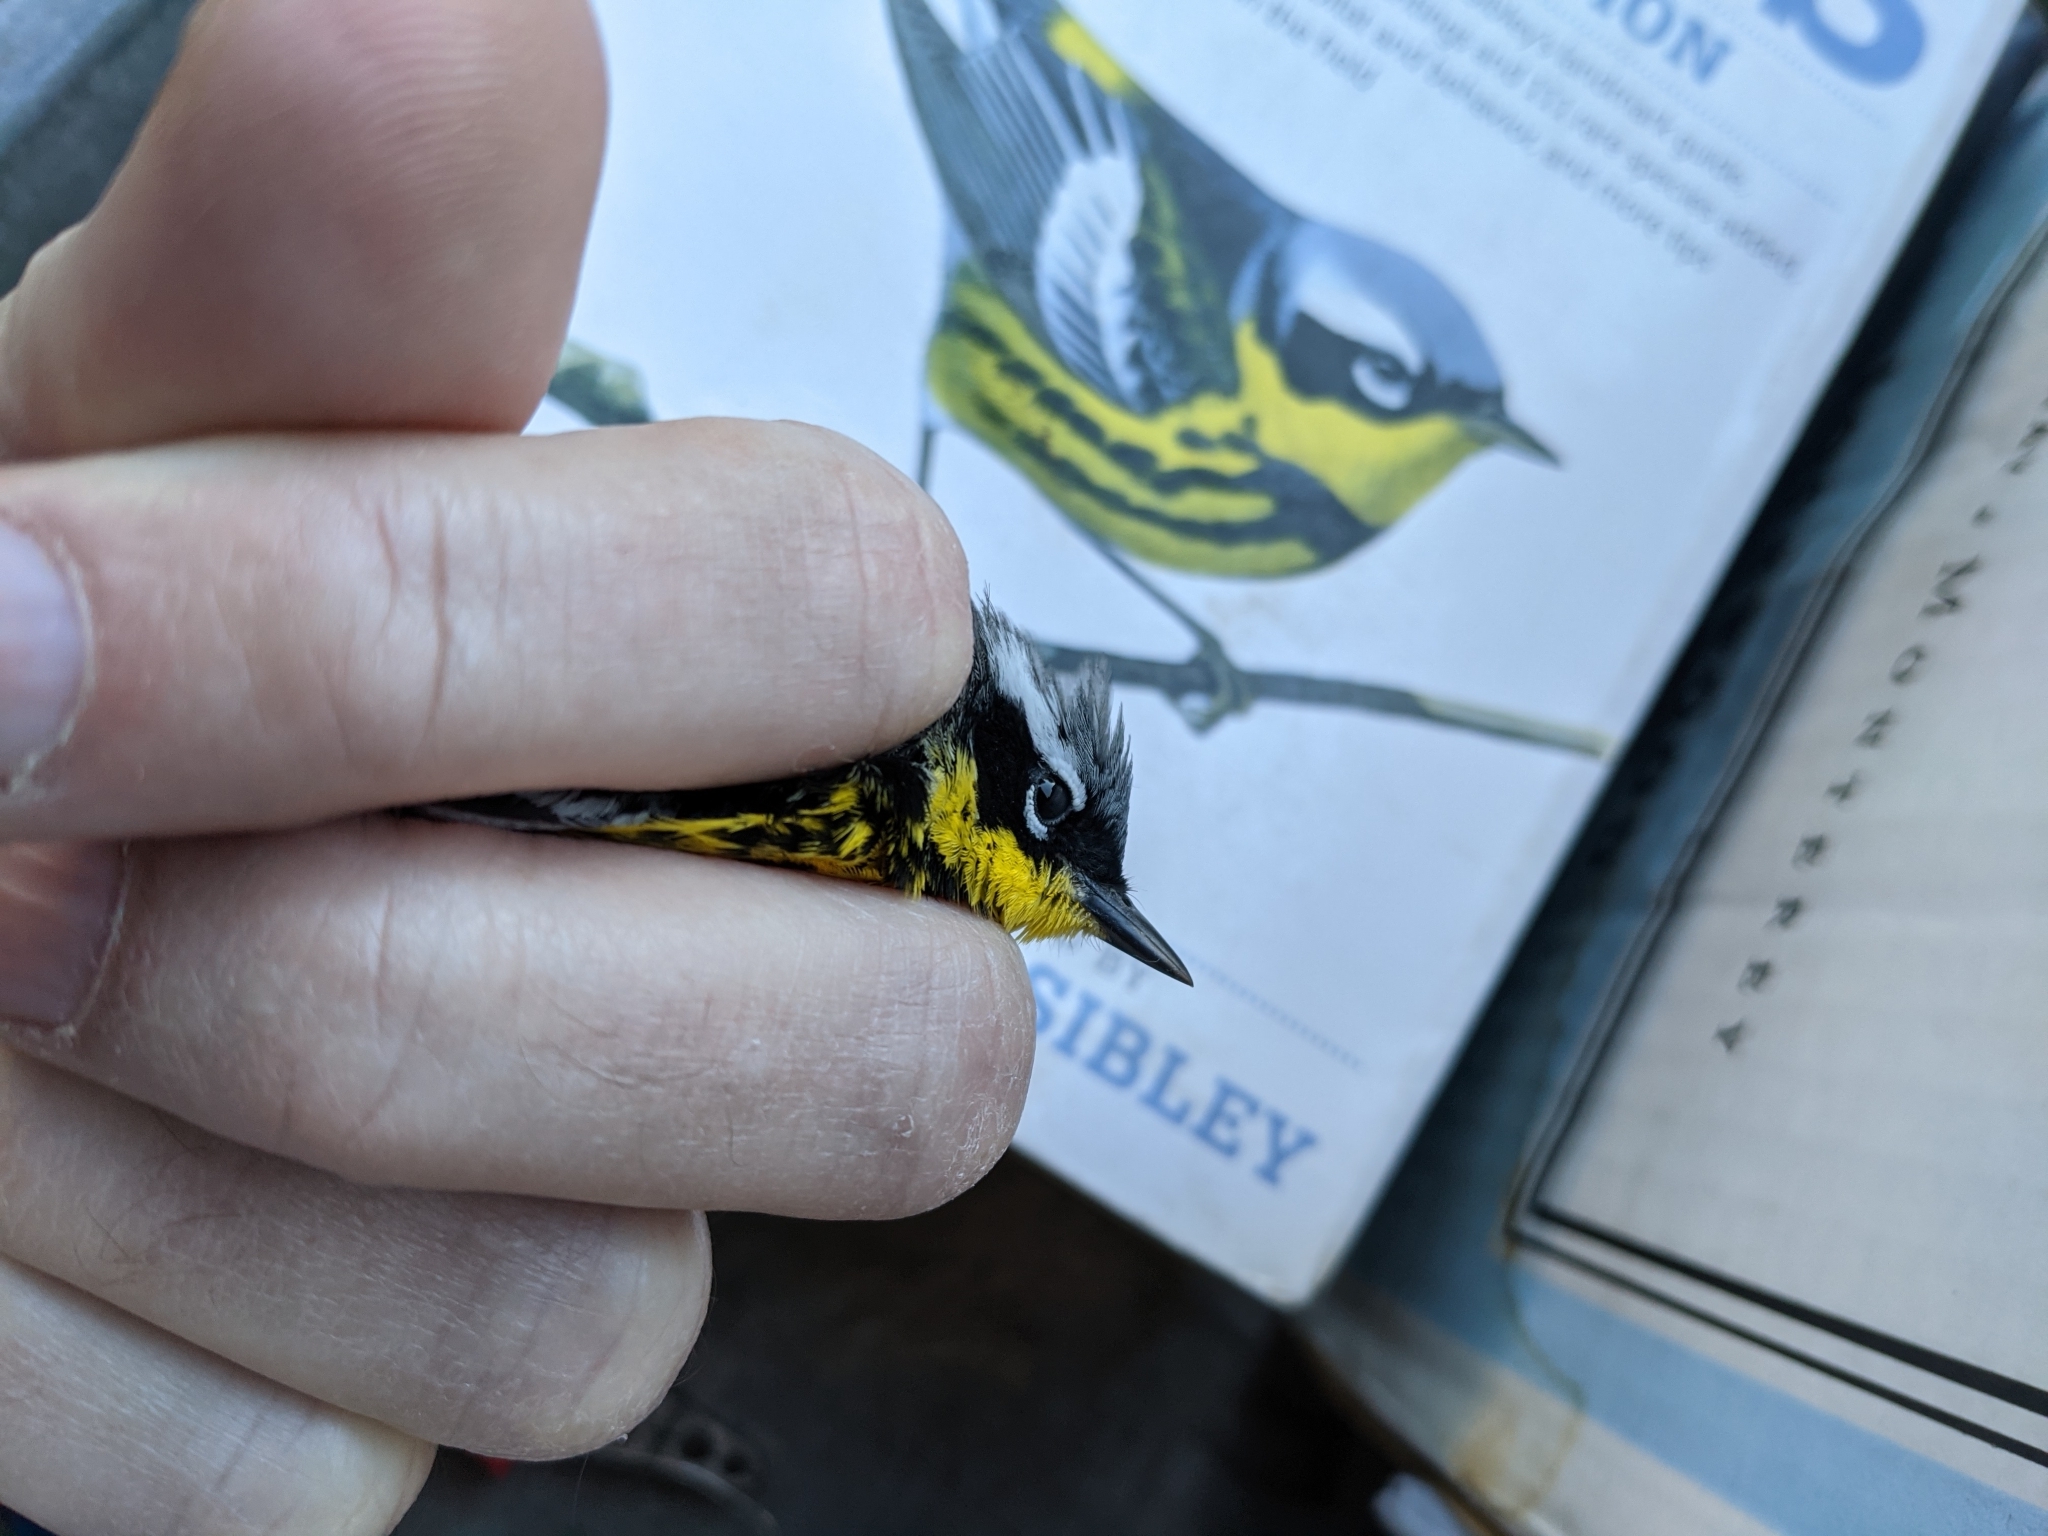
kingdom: Animalia
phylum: Chordata
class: Aves
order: Passeriformes
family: Parulidae
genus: Setophaga
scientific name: Setophaga magnolia
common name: Magnolia warbler
